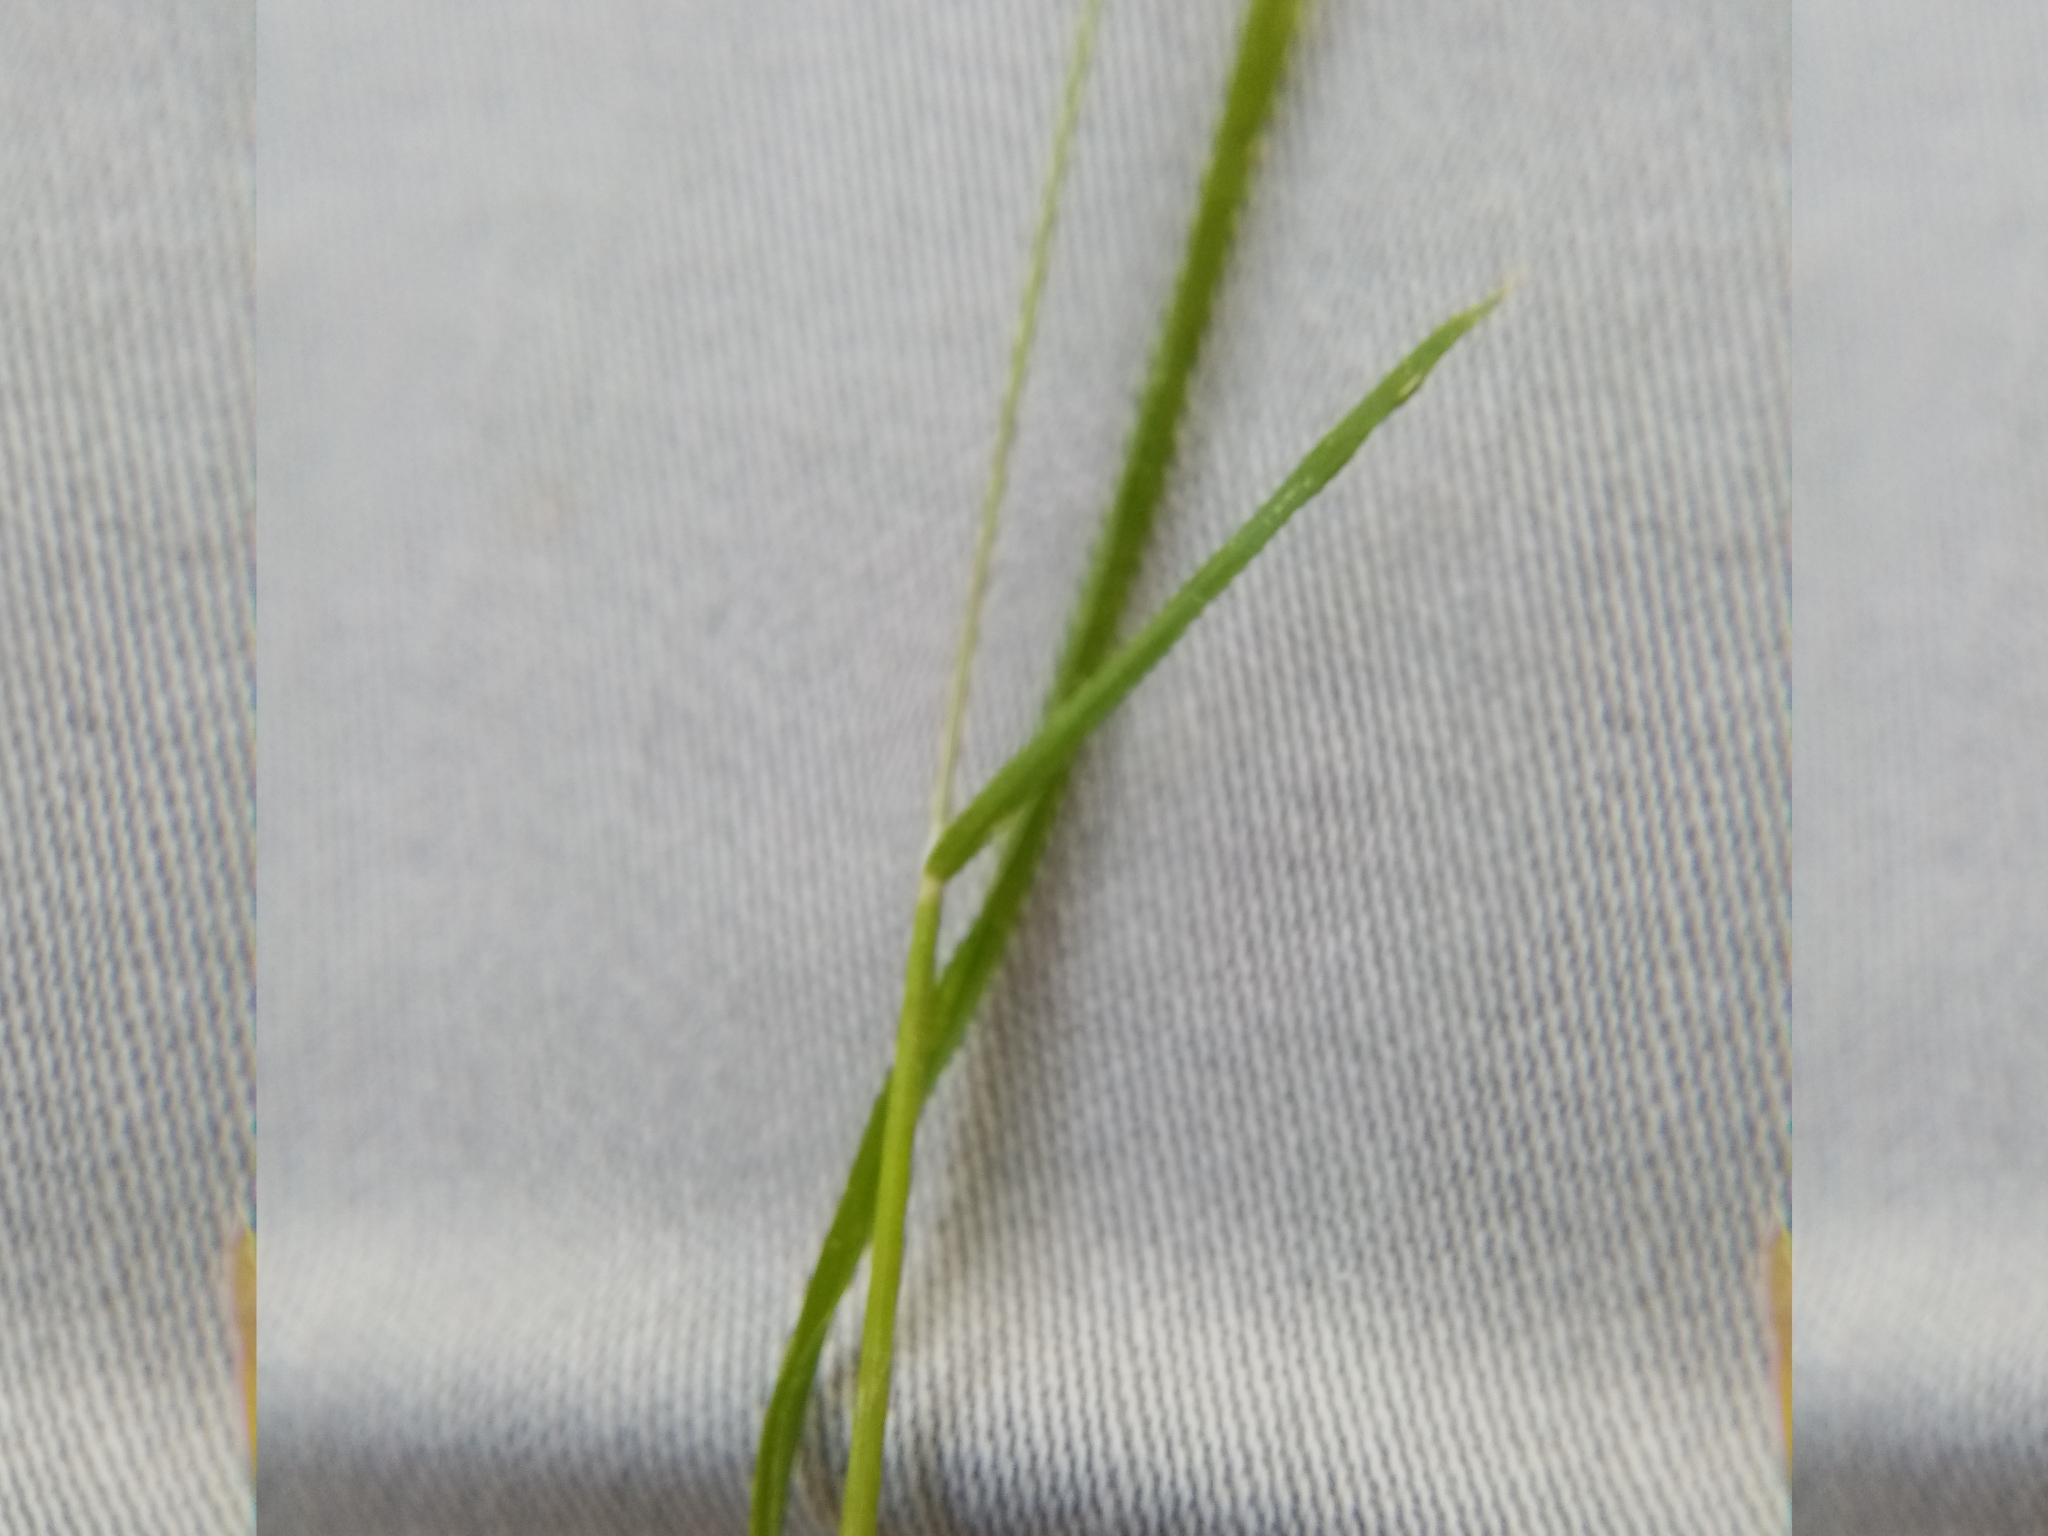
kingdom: Plantae
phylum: Tracheophyta
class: Liliopsida
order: Poales
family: Poaceae
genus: Poa
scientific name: Poa annua
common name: Annual bluegrass
